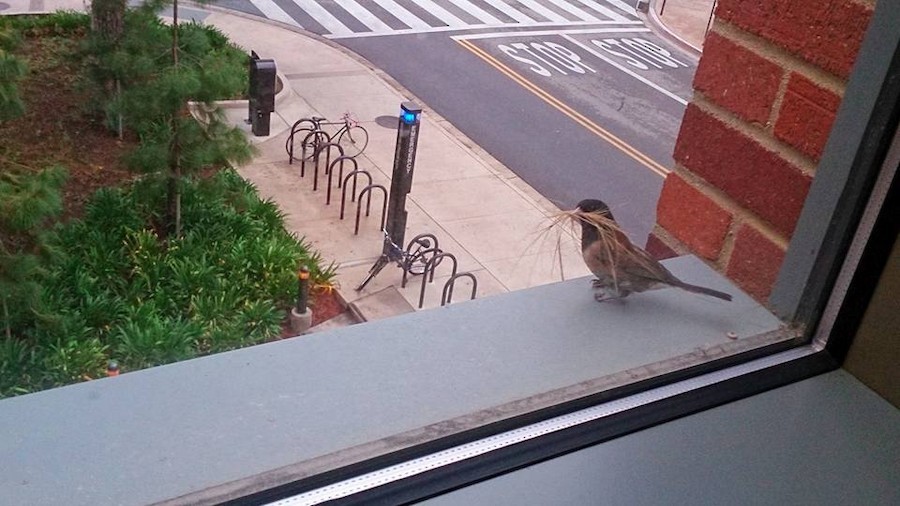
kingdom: Animalia
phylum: Chordata
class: Aves
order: Passeriformes
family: Passerellidae
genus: Junco
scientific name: Junco hyemalis
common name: Dark-eyed junco
